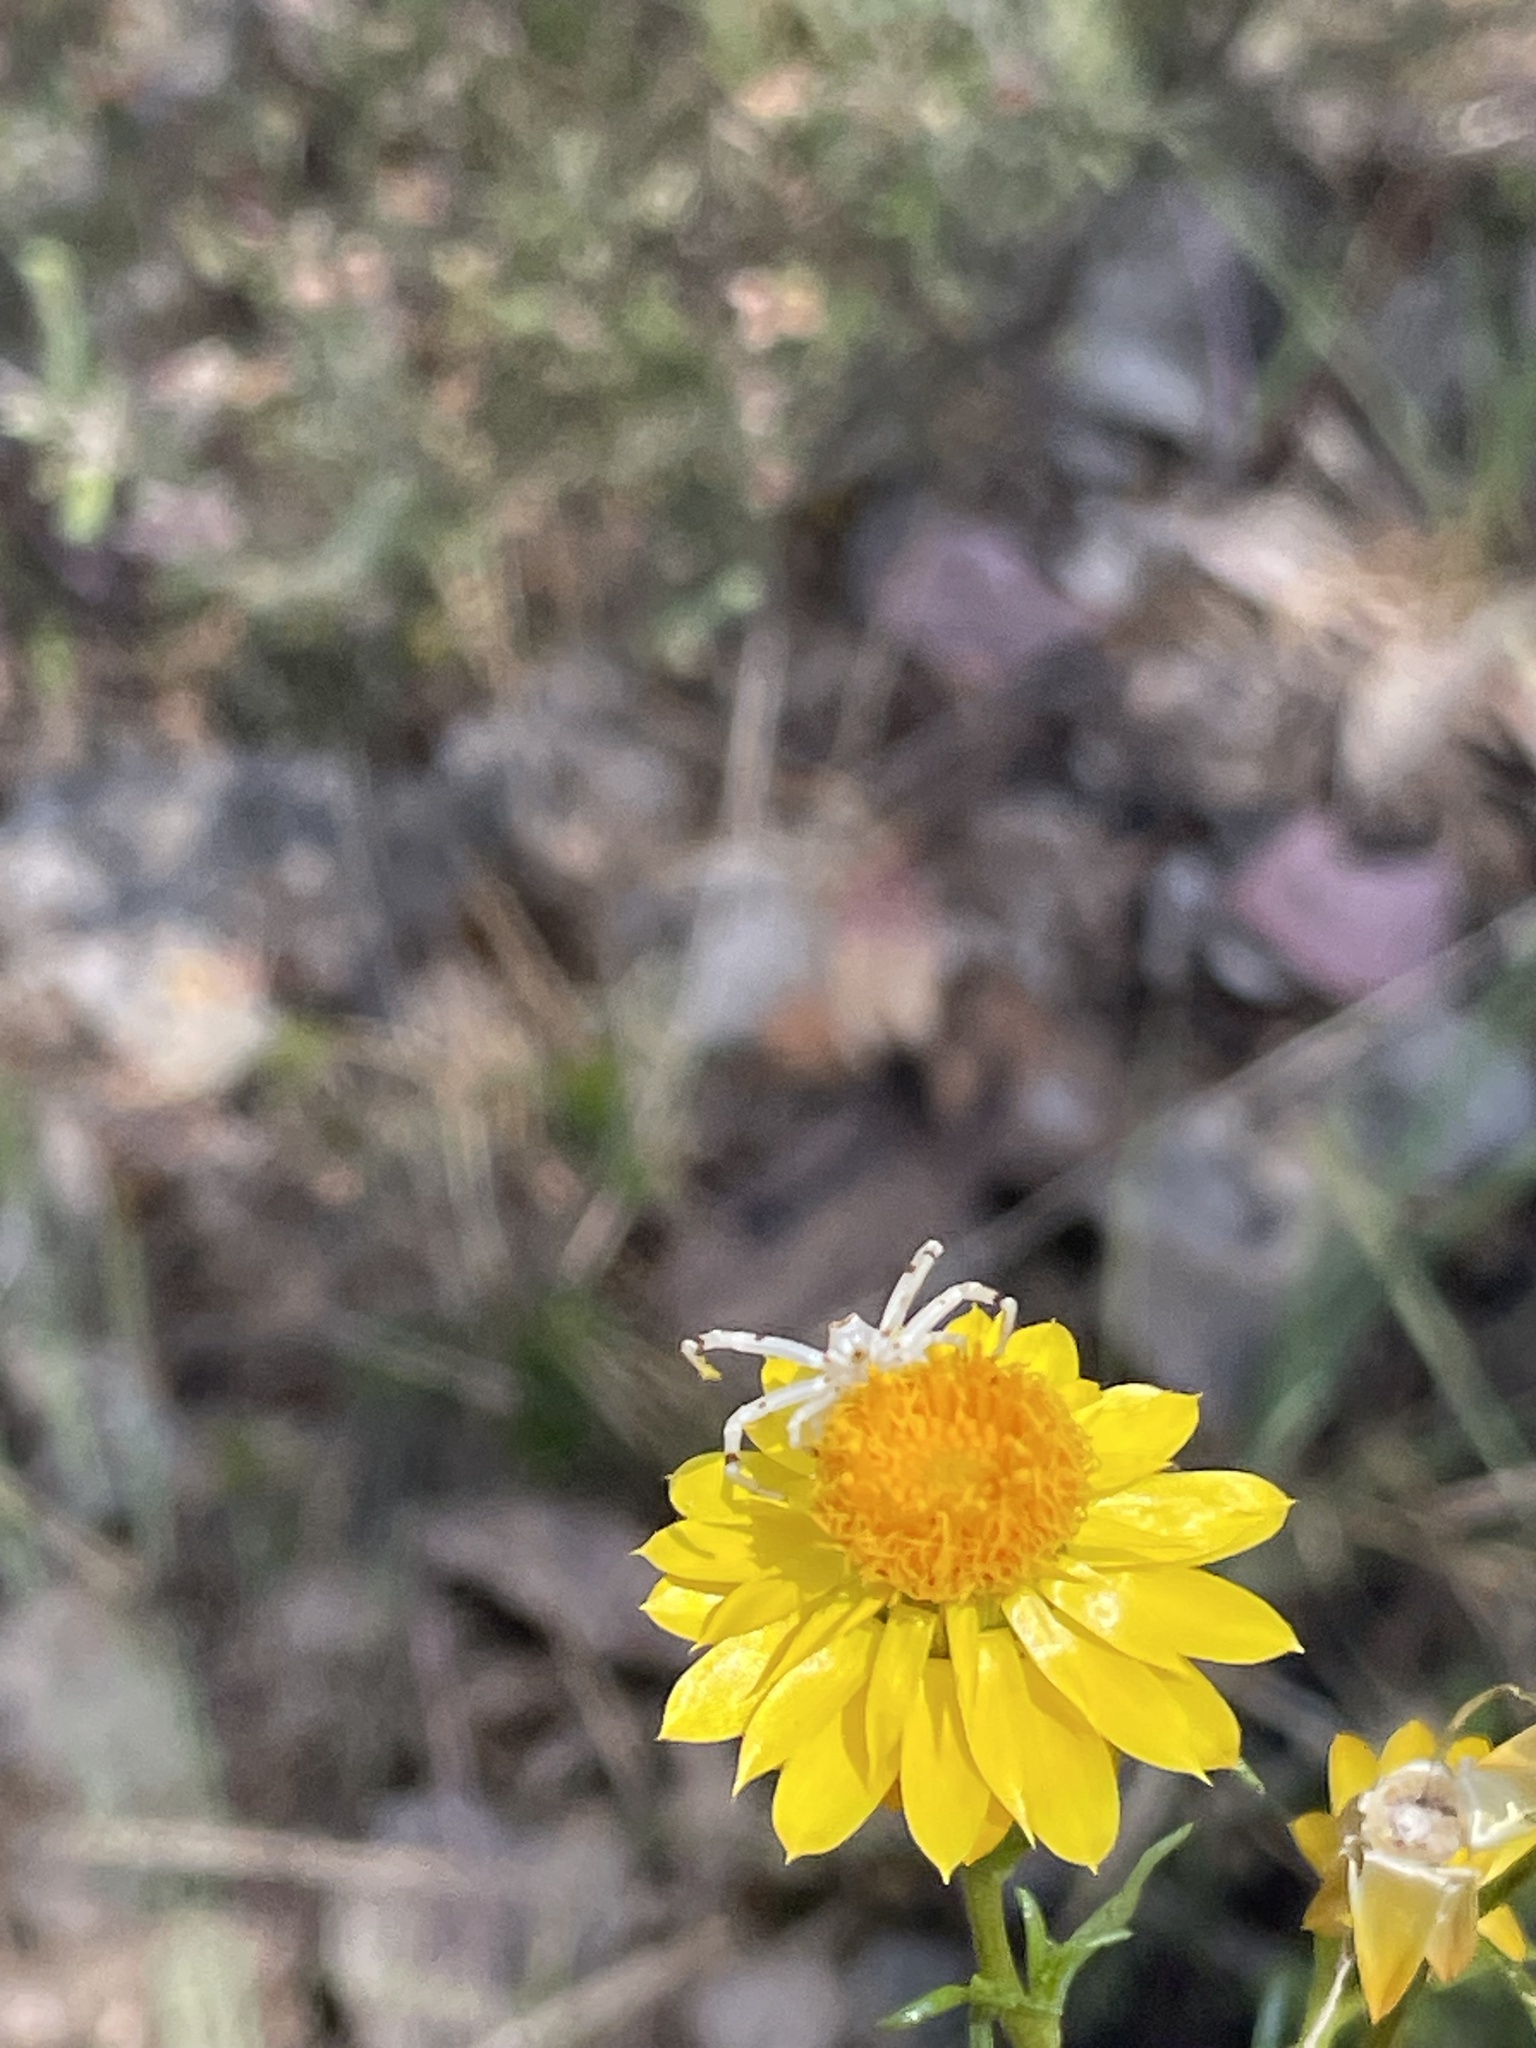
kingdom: Plantae
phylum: Tracheophyta
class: Magnoliopsida
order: Asterales
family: Asteraceae
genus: Xerochrysum
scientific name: Xerochrysum viscosum
